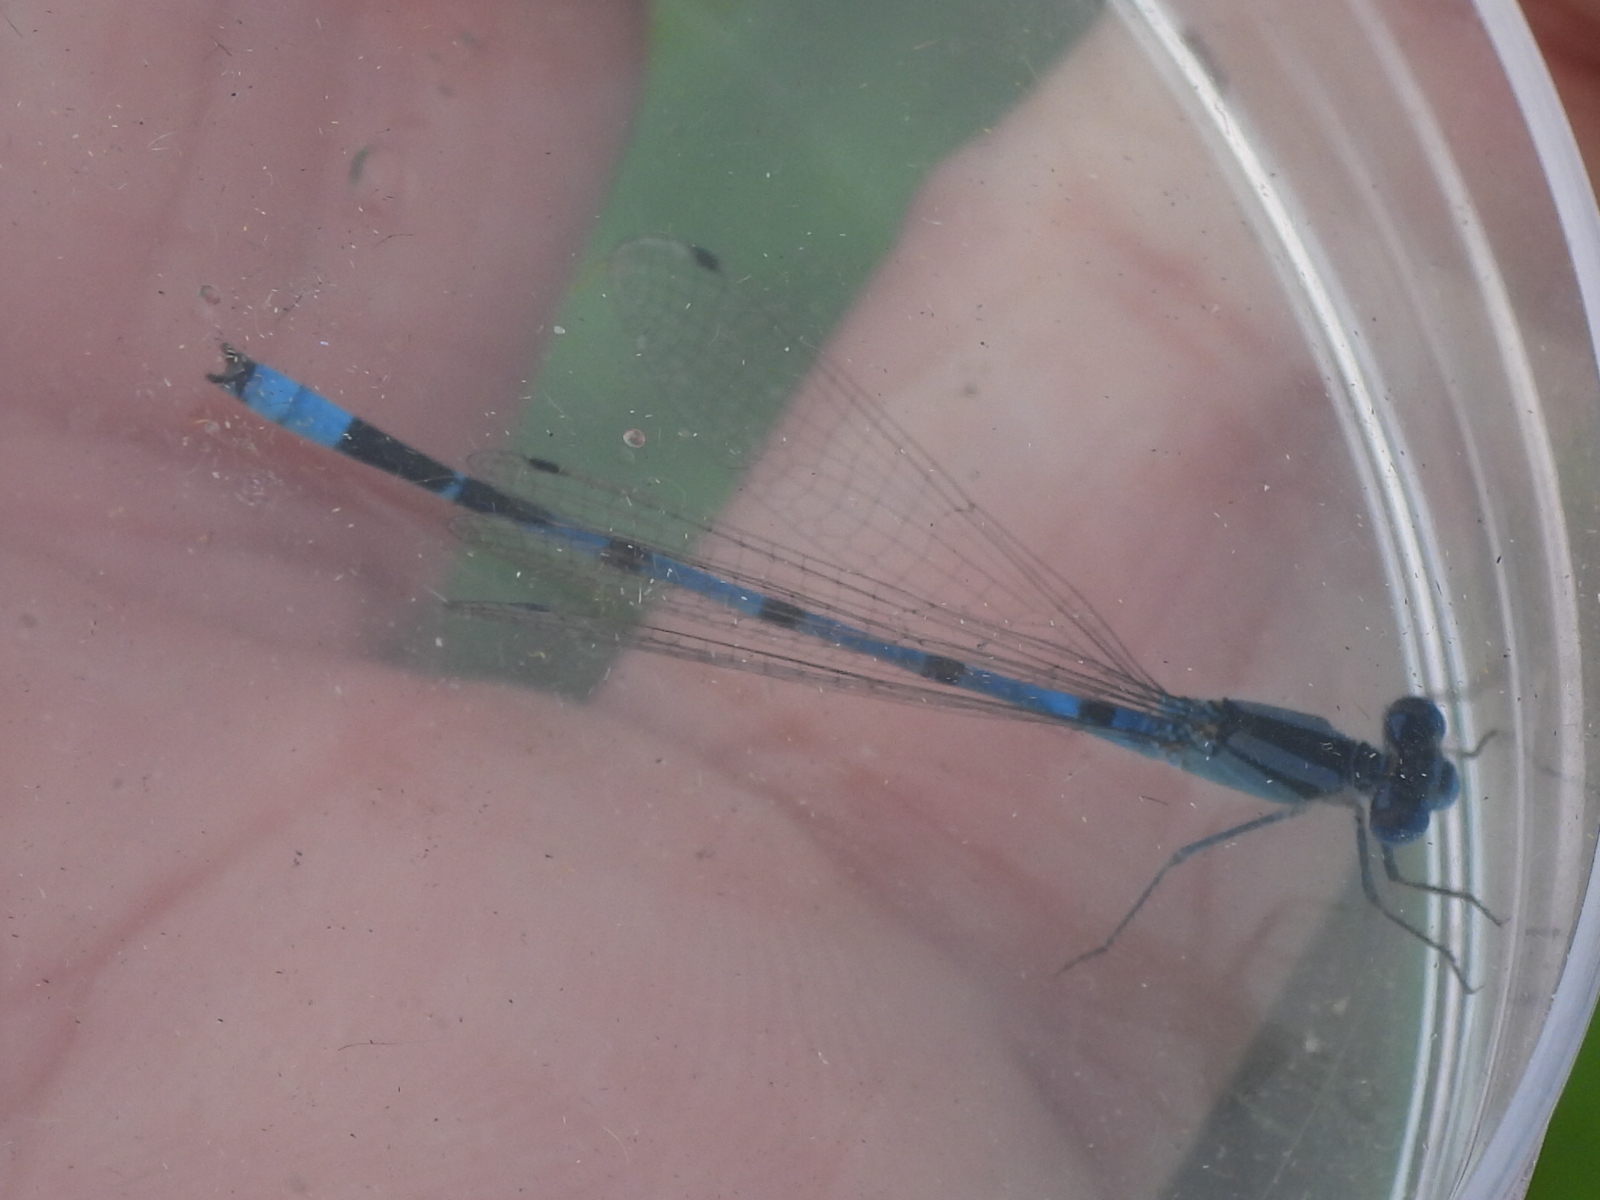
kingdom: Animalia
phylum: Arthropoda
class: Insecta
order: Odonata
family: Coenagrionidae
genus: Enallagma
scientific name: Enallagma civile
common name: Damselfly
